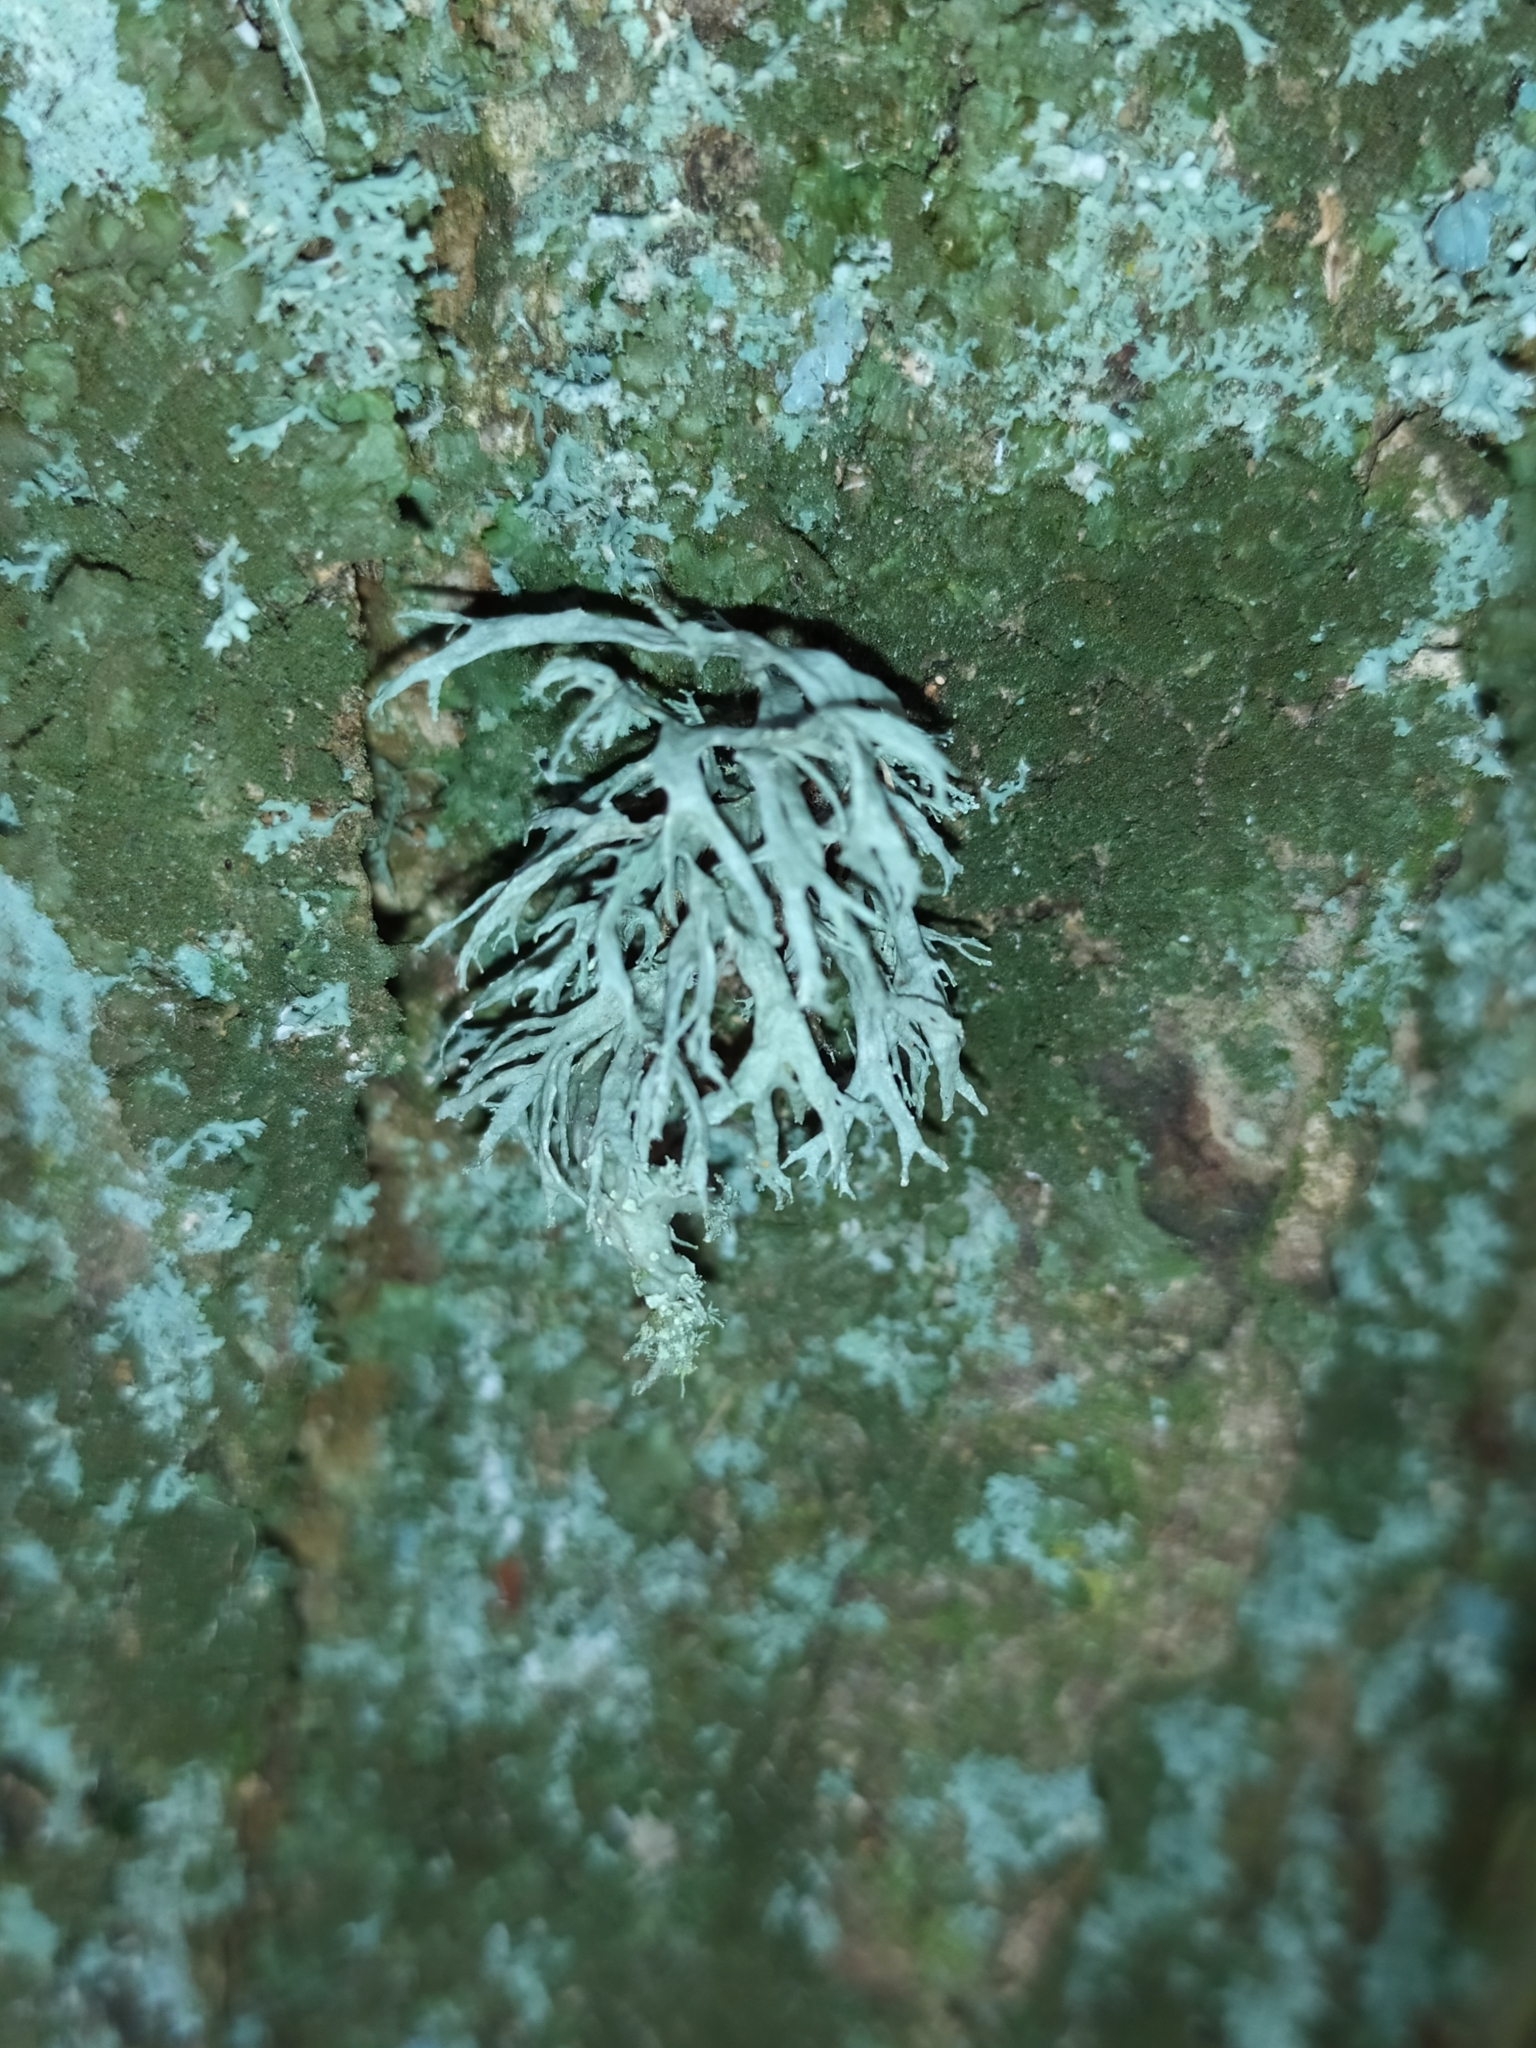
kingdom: Fungi
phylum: Ascomycota
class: Lecanoromycetes
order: Lecanorales
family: Ramalinaceae
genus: Ramalina
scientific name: Ramalina farinacea
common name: Farinose cartilage lichen
